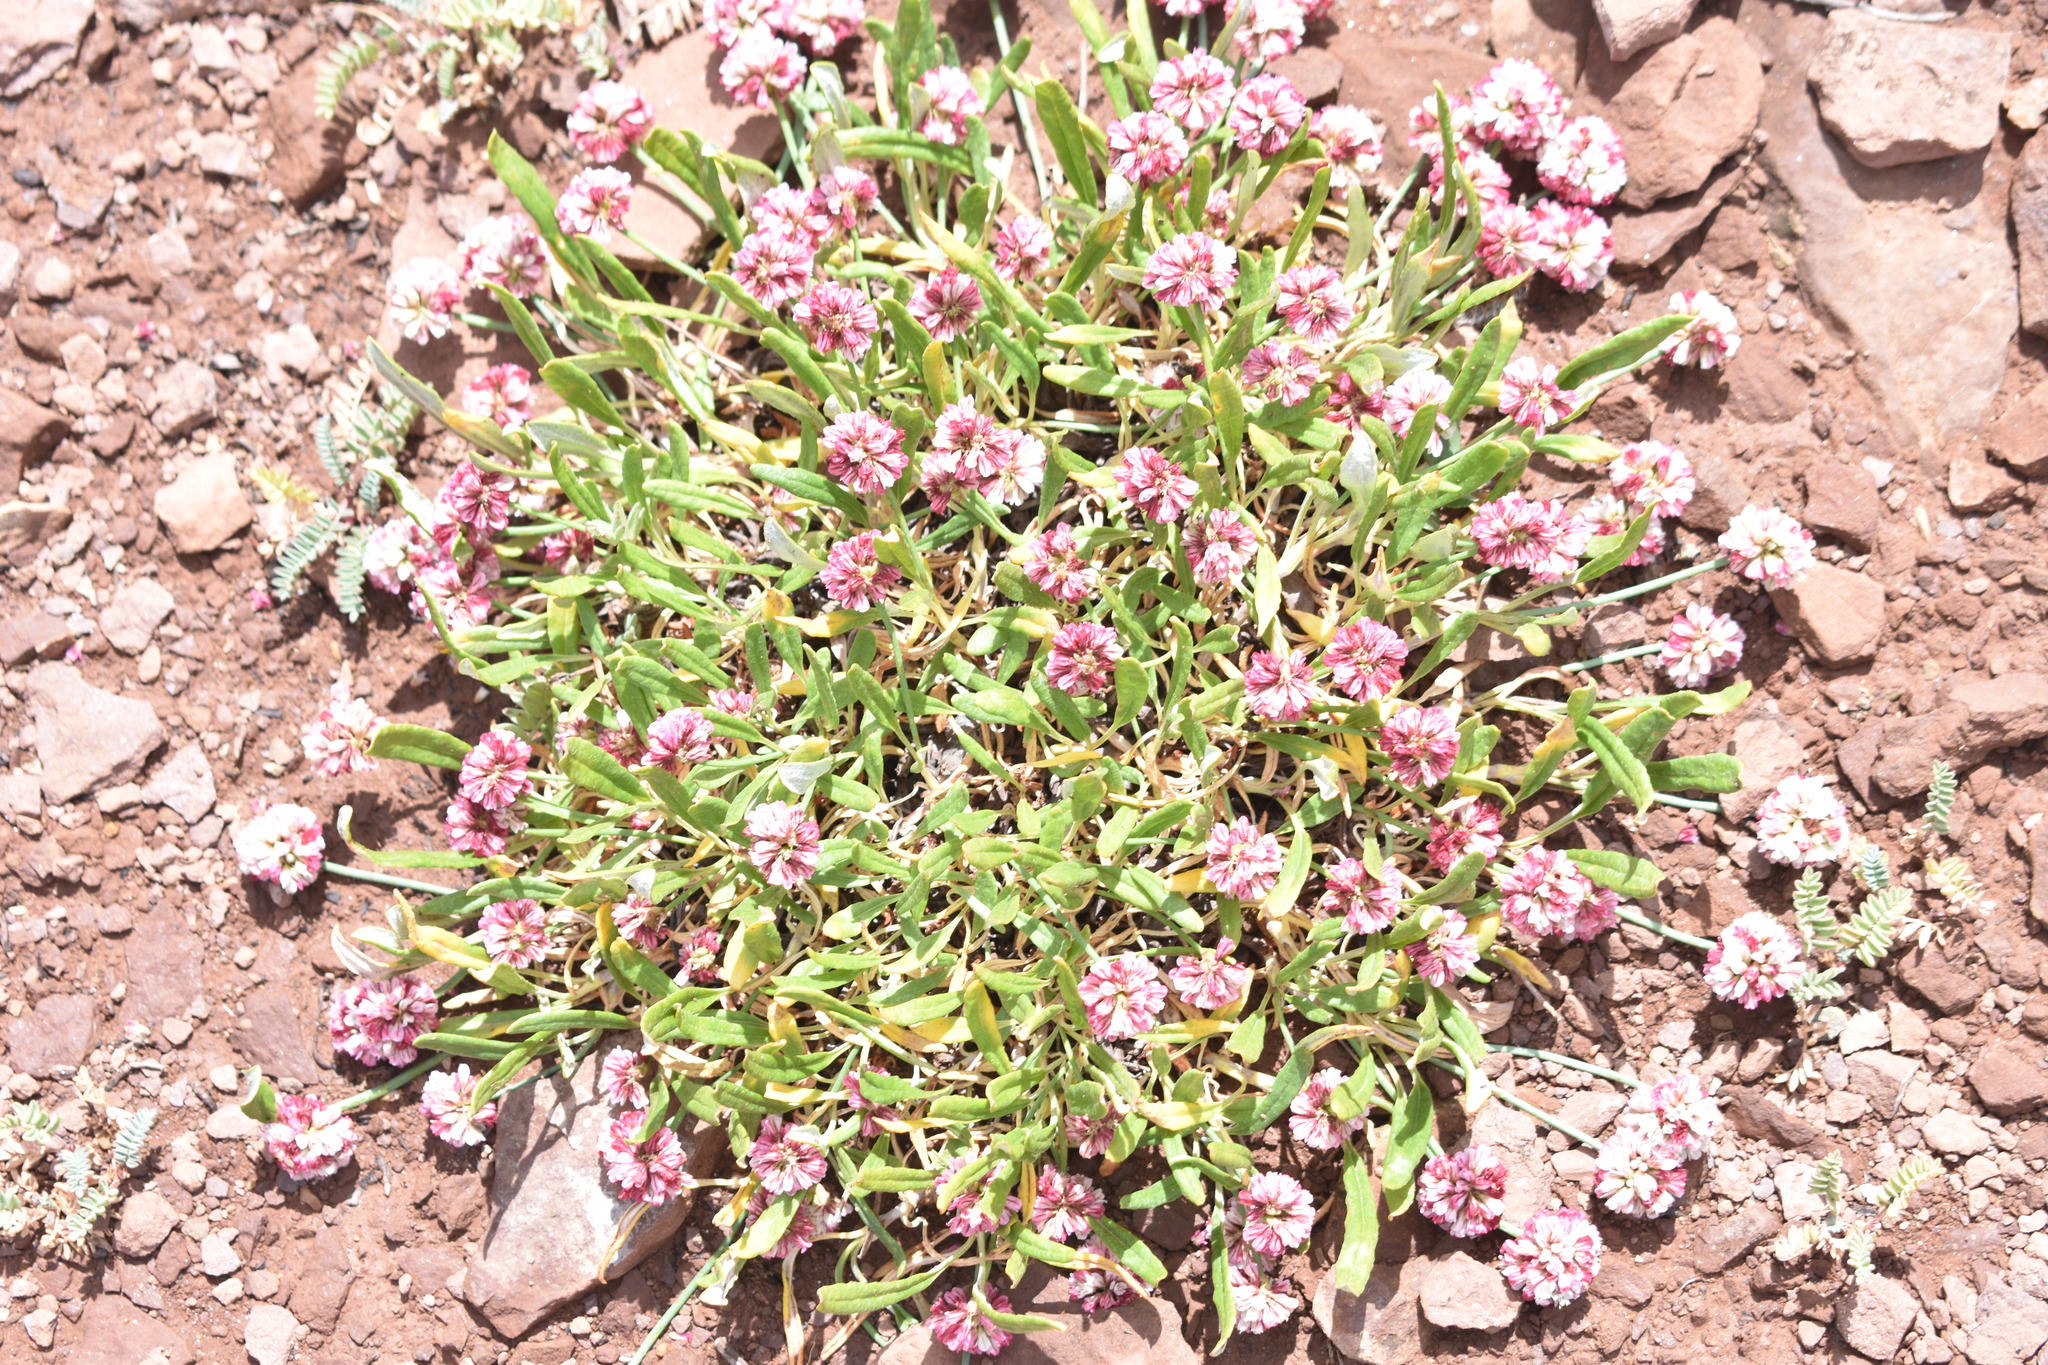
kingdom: Plantae
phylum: Tracheophyta
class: Magnoliopsida
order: Caryophyllales
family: Polygonaceae
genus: Eriogonum
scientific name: Eriogonum coloradense
